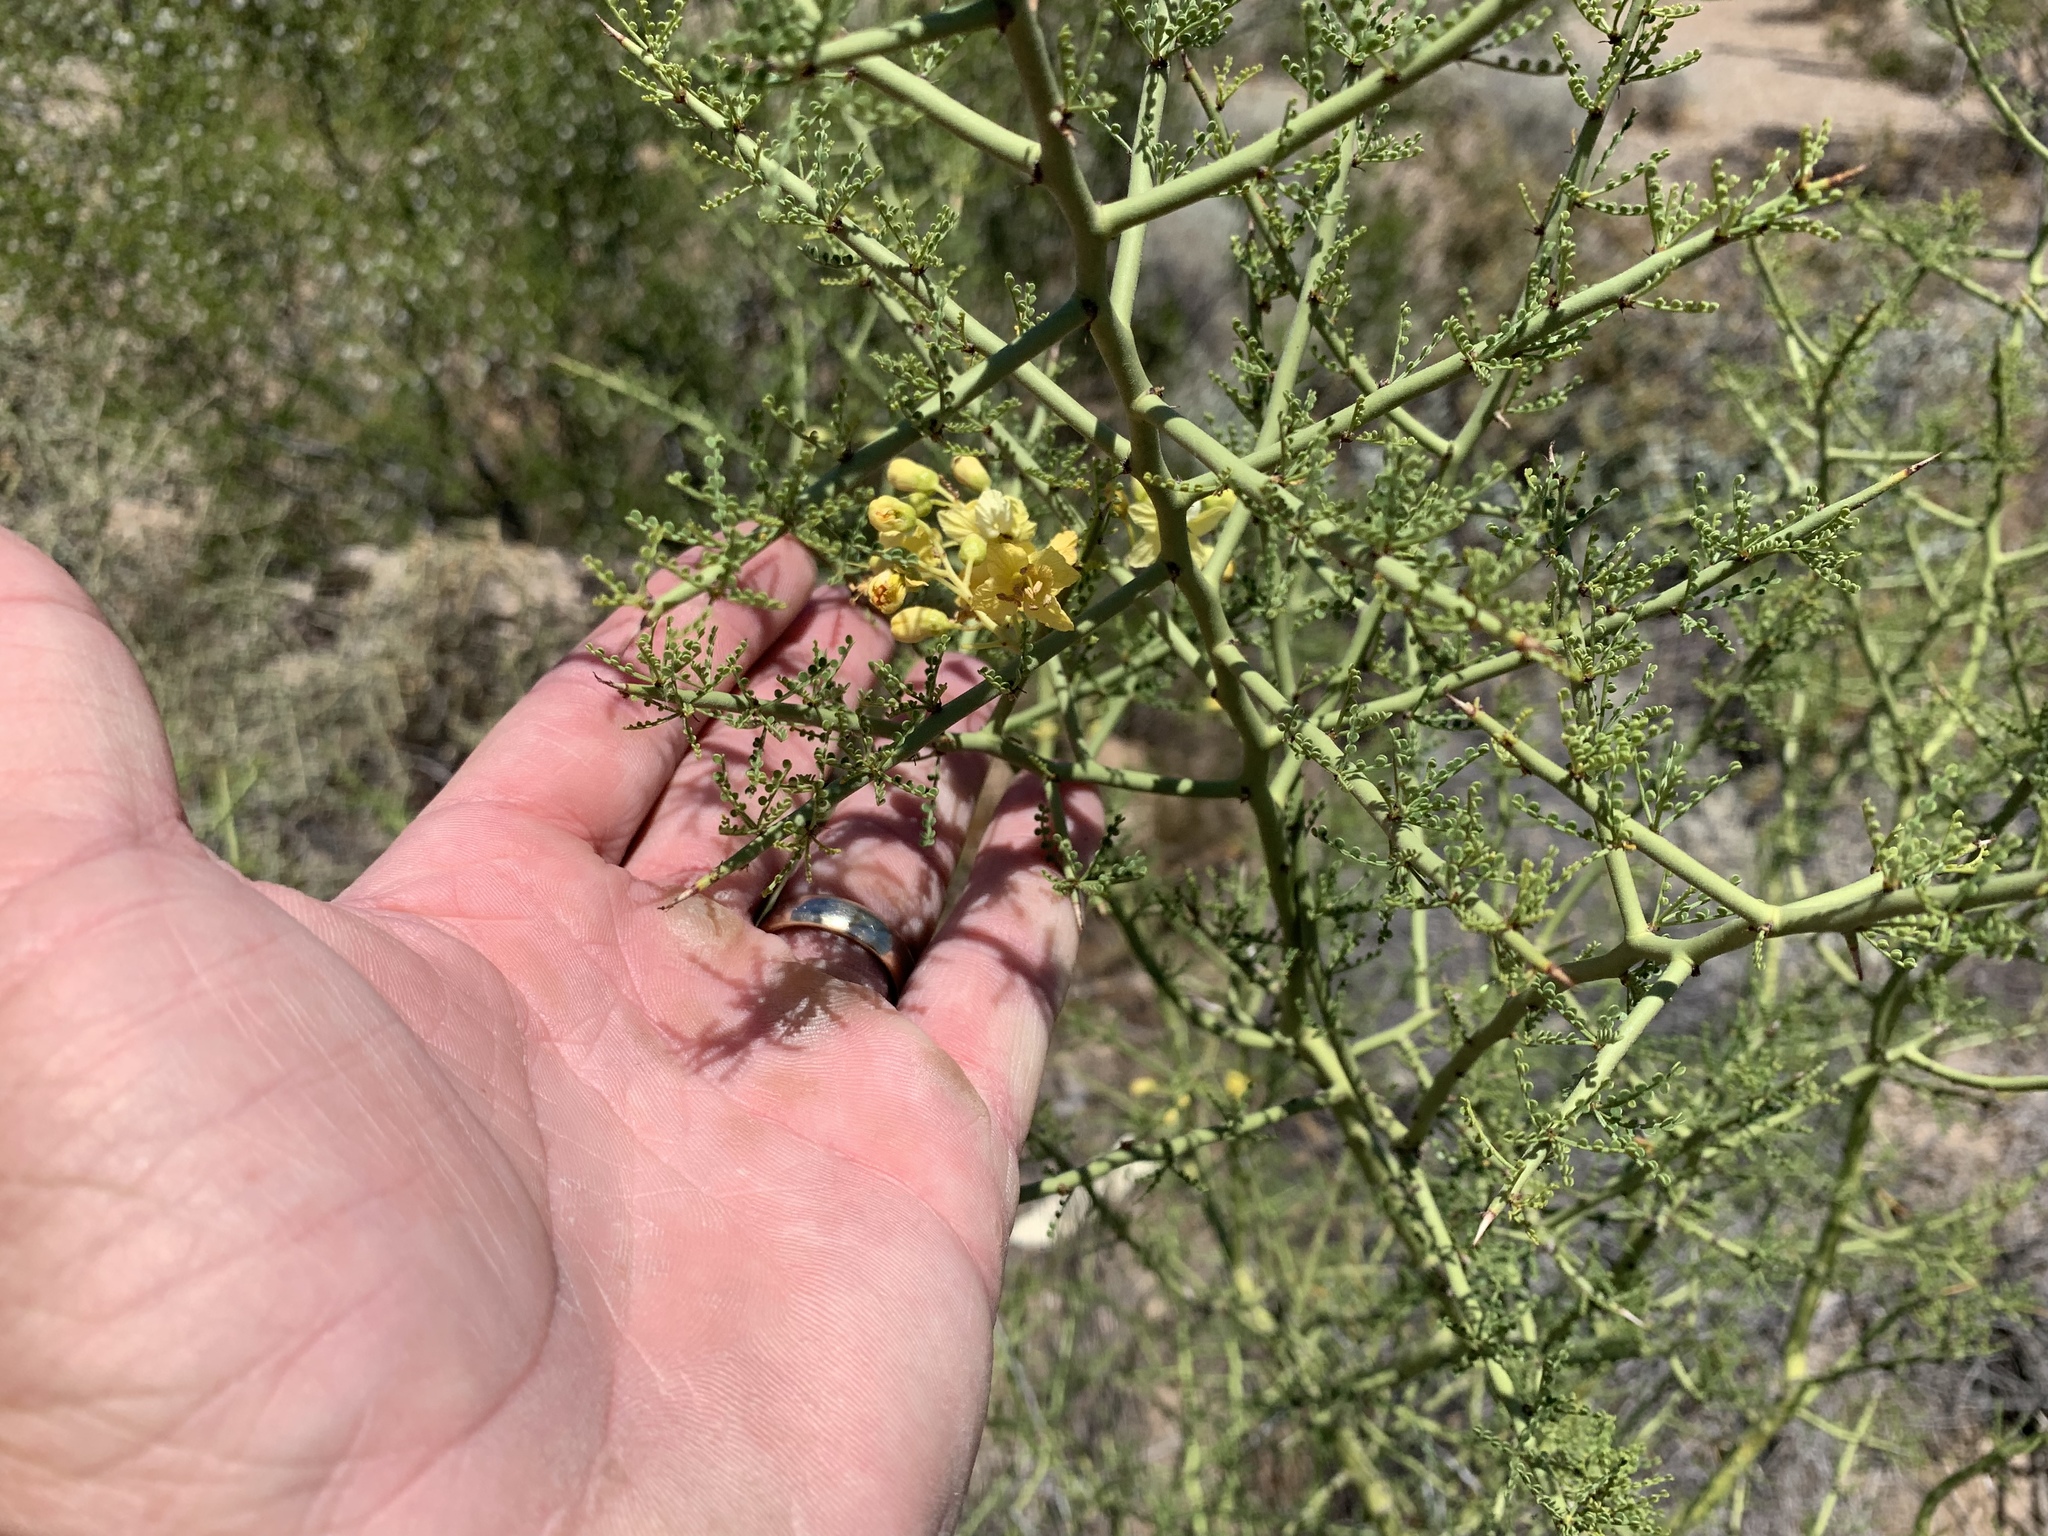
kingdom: Plantae
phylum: Tracheophyta
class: Magnoliopsida
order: Fabales
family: Fabaceae
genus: Parkinsonia
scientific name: Parkinsonia microphylla
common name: Yellow paloverde
